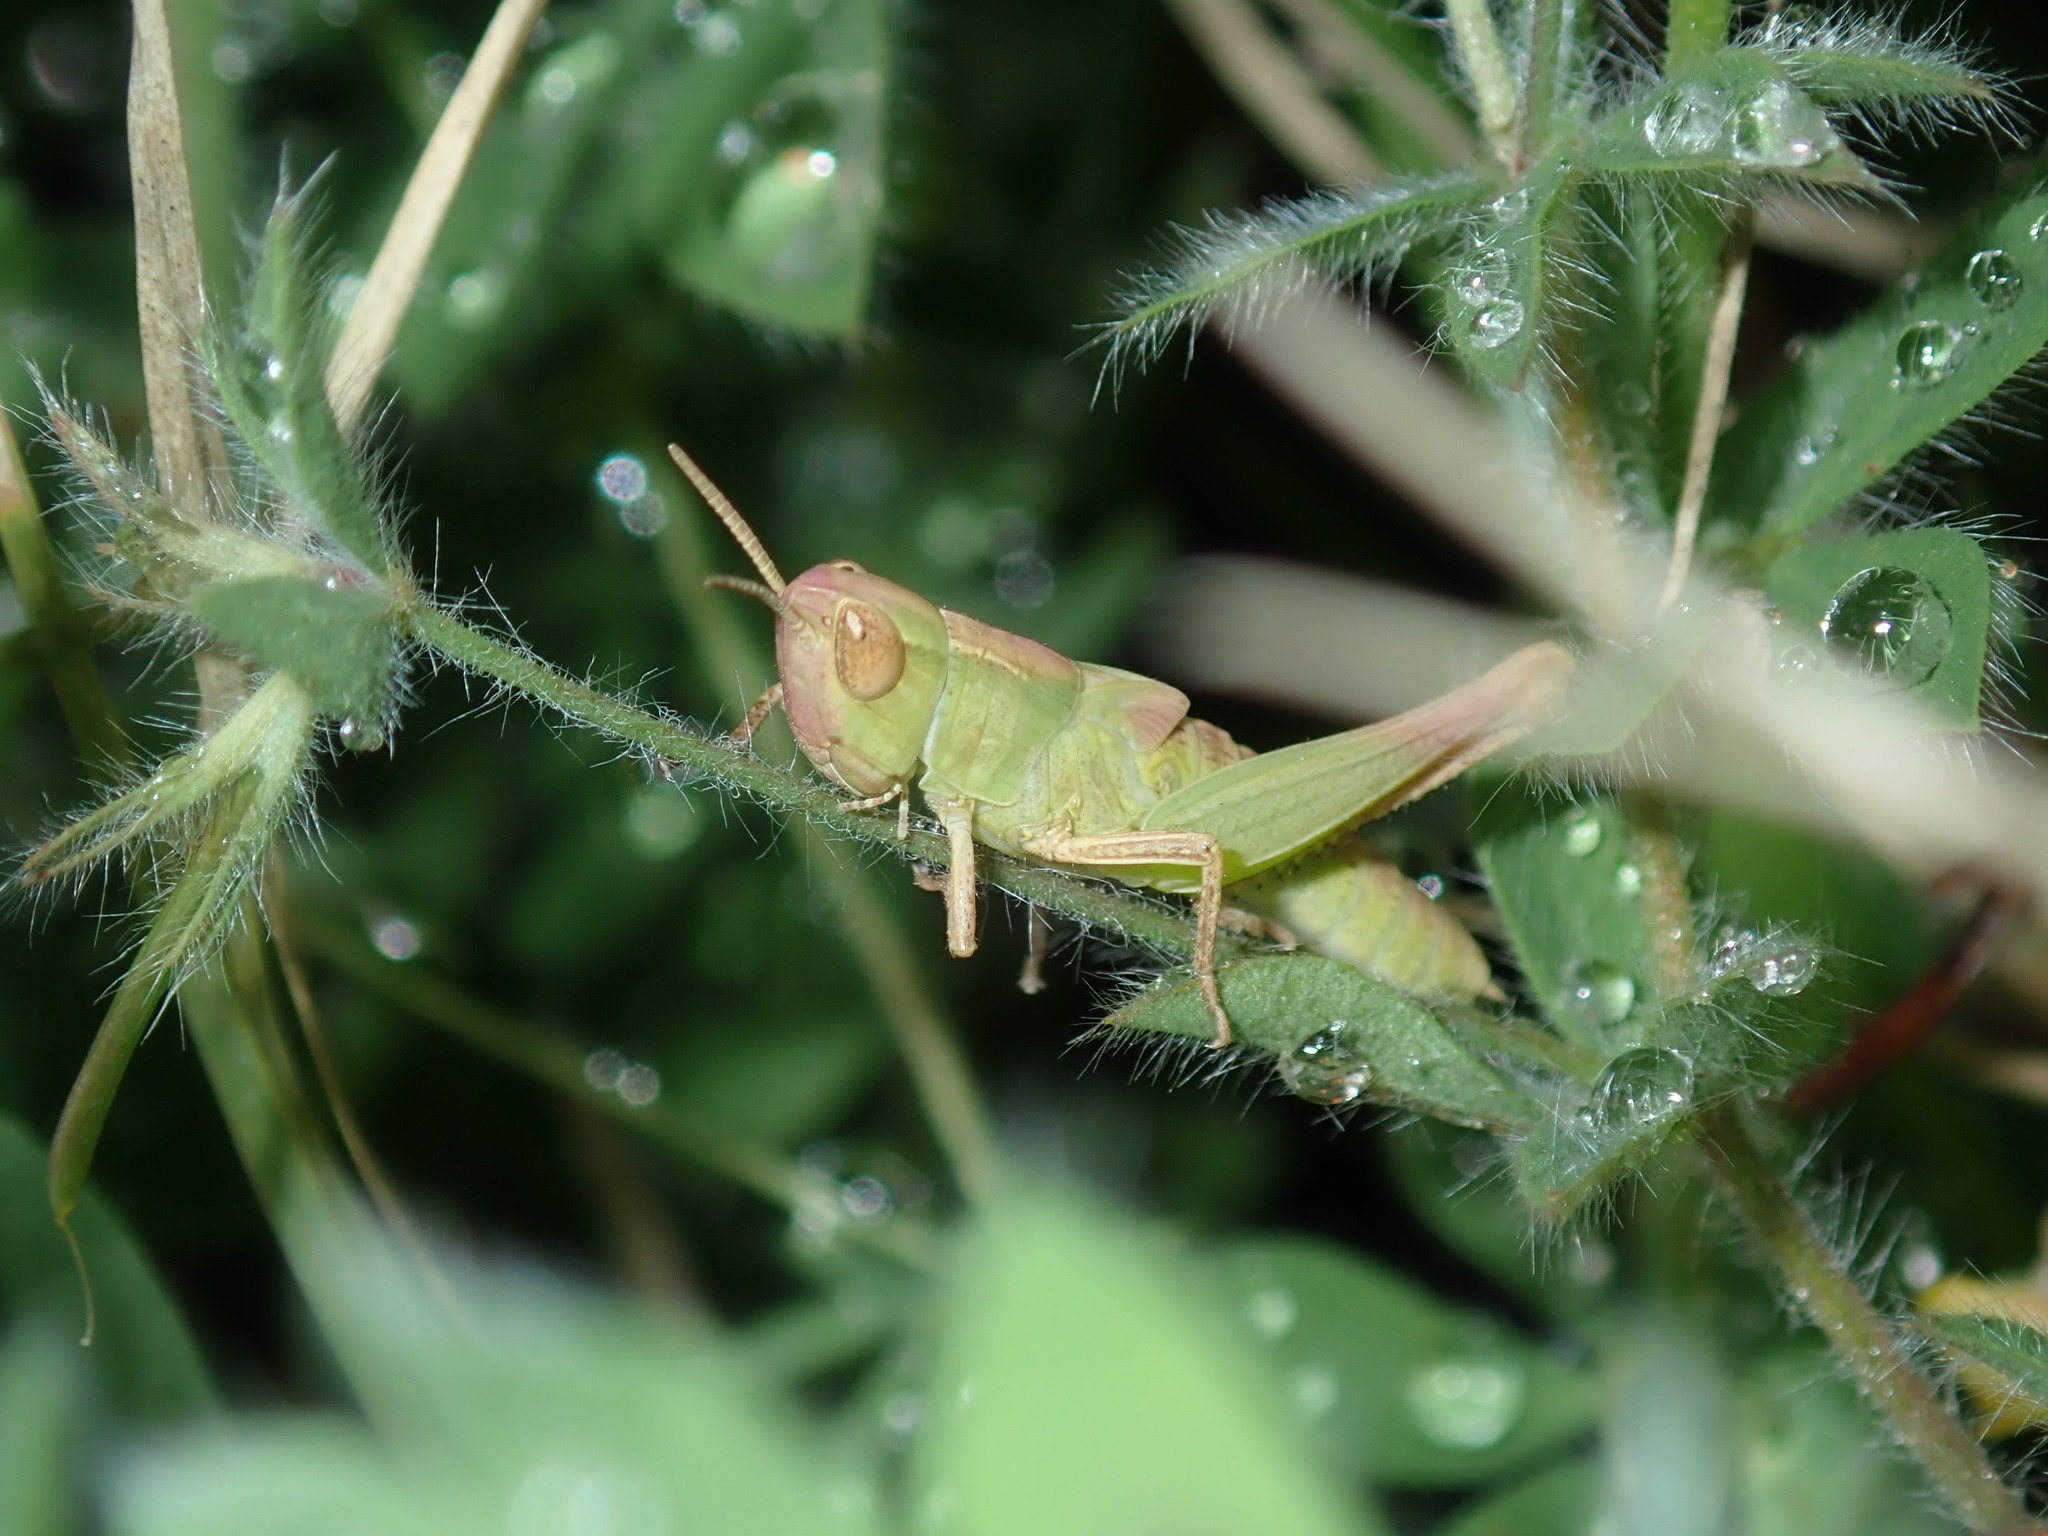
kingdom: Animalia
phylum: Arthropoda
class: Insecta
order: Orthoptera
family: Acrididae
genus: Chortoicetes
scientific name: Chortoicetes terminifera
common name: Australian plague locust
